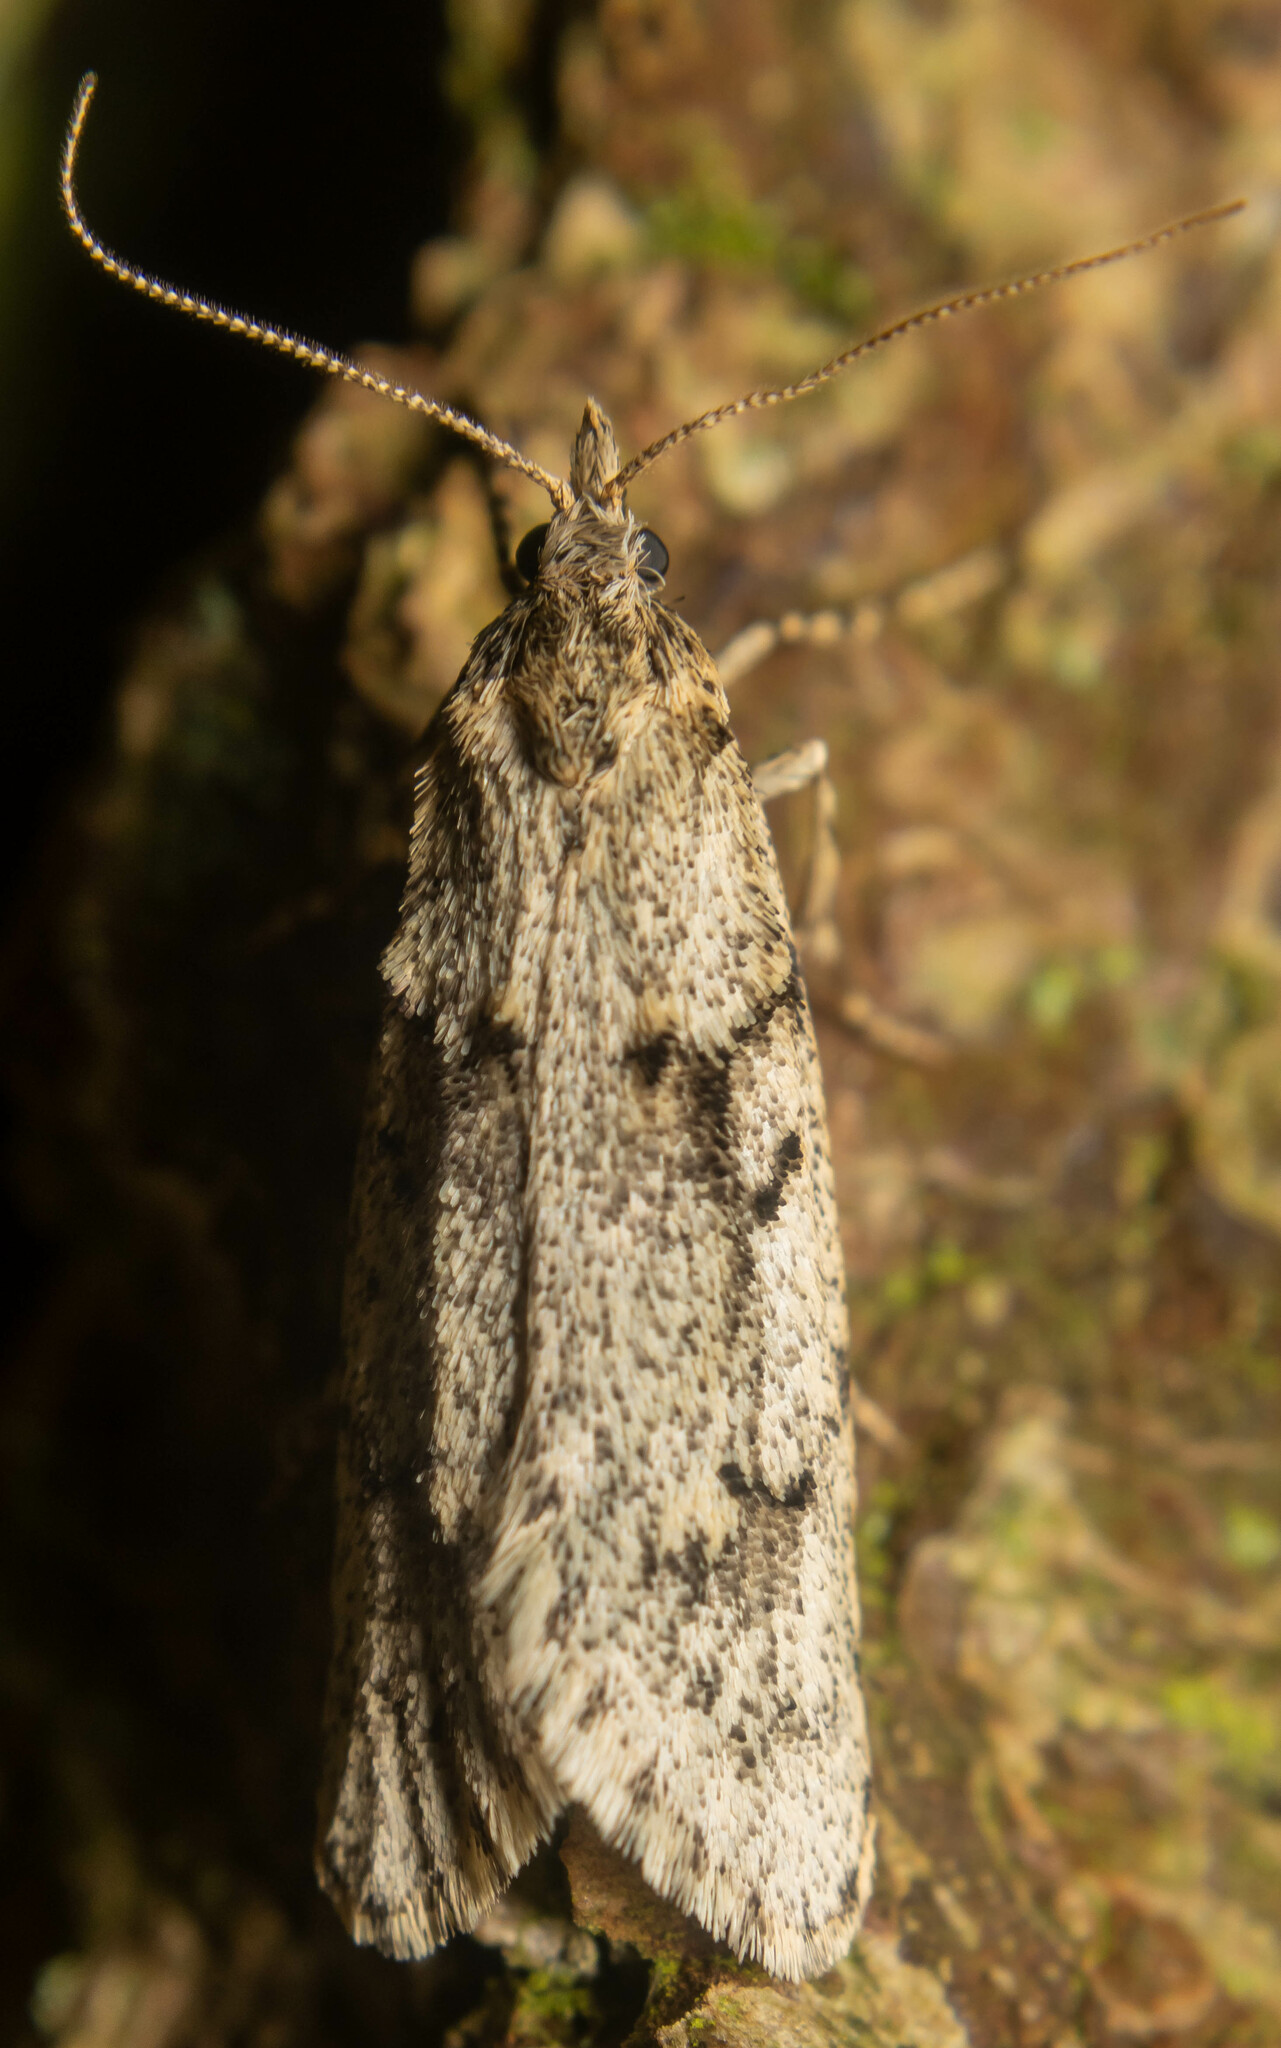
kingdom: Animalia
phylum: Arthropoda
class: Insecta
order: Lepidoptera
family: Lypusidae
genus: Diurnea
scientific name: Diurnea fagella
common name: March tubic
